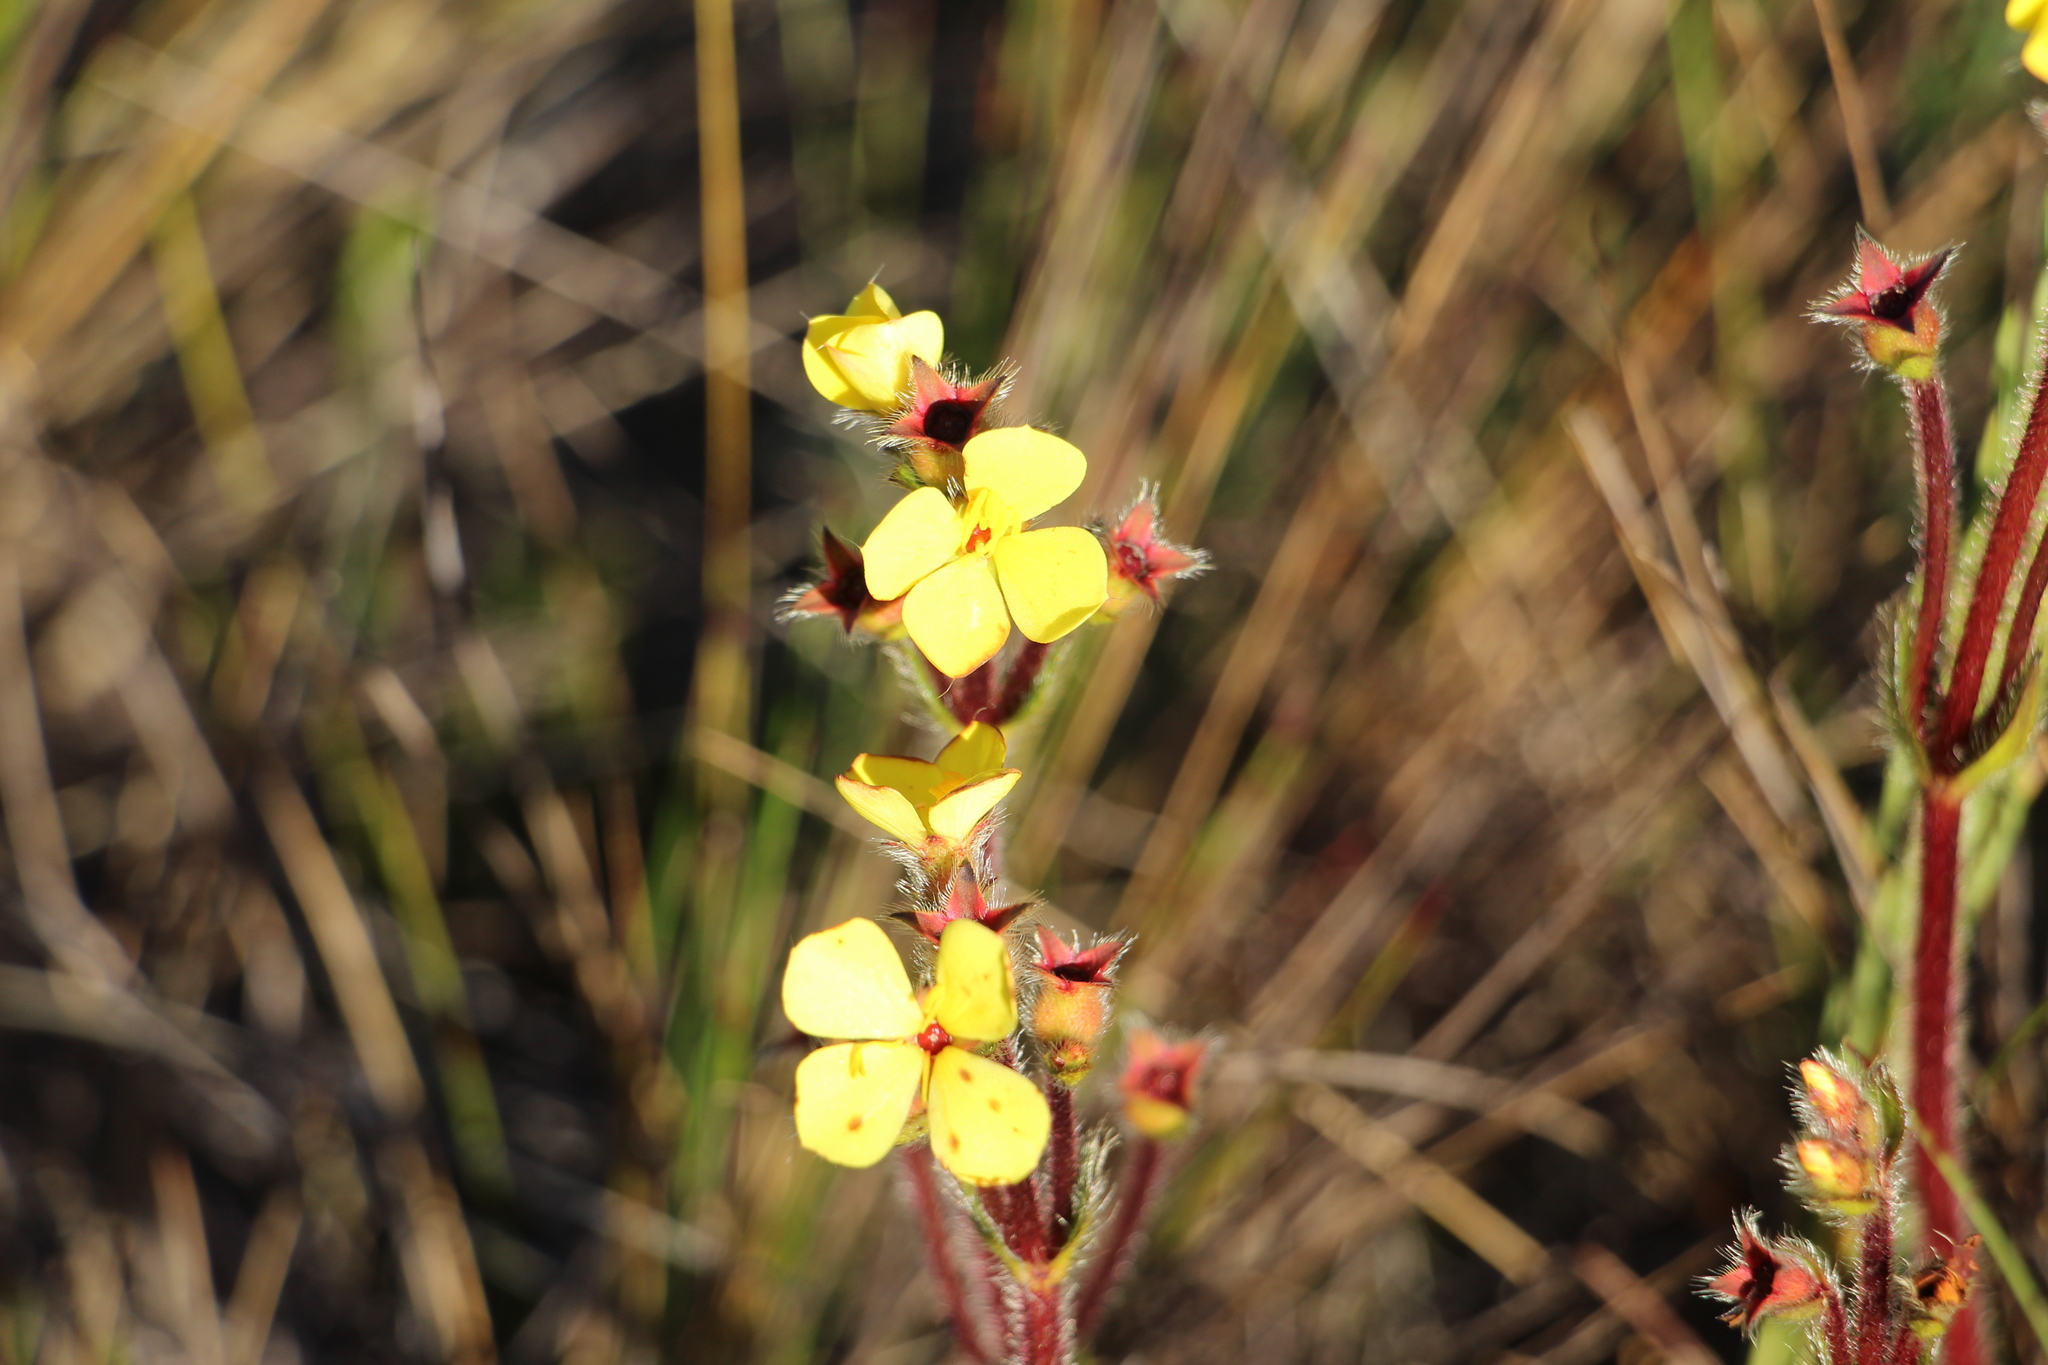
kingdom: Plantae
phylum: Tracheophyta
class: Magnoliopsida
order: Myrtales
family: Melastomataceae
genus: Castratella
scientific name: Castratella piloselloides
